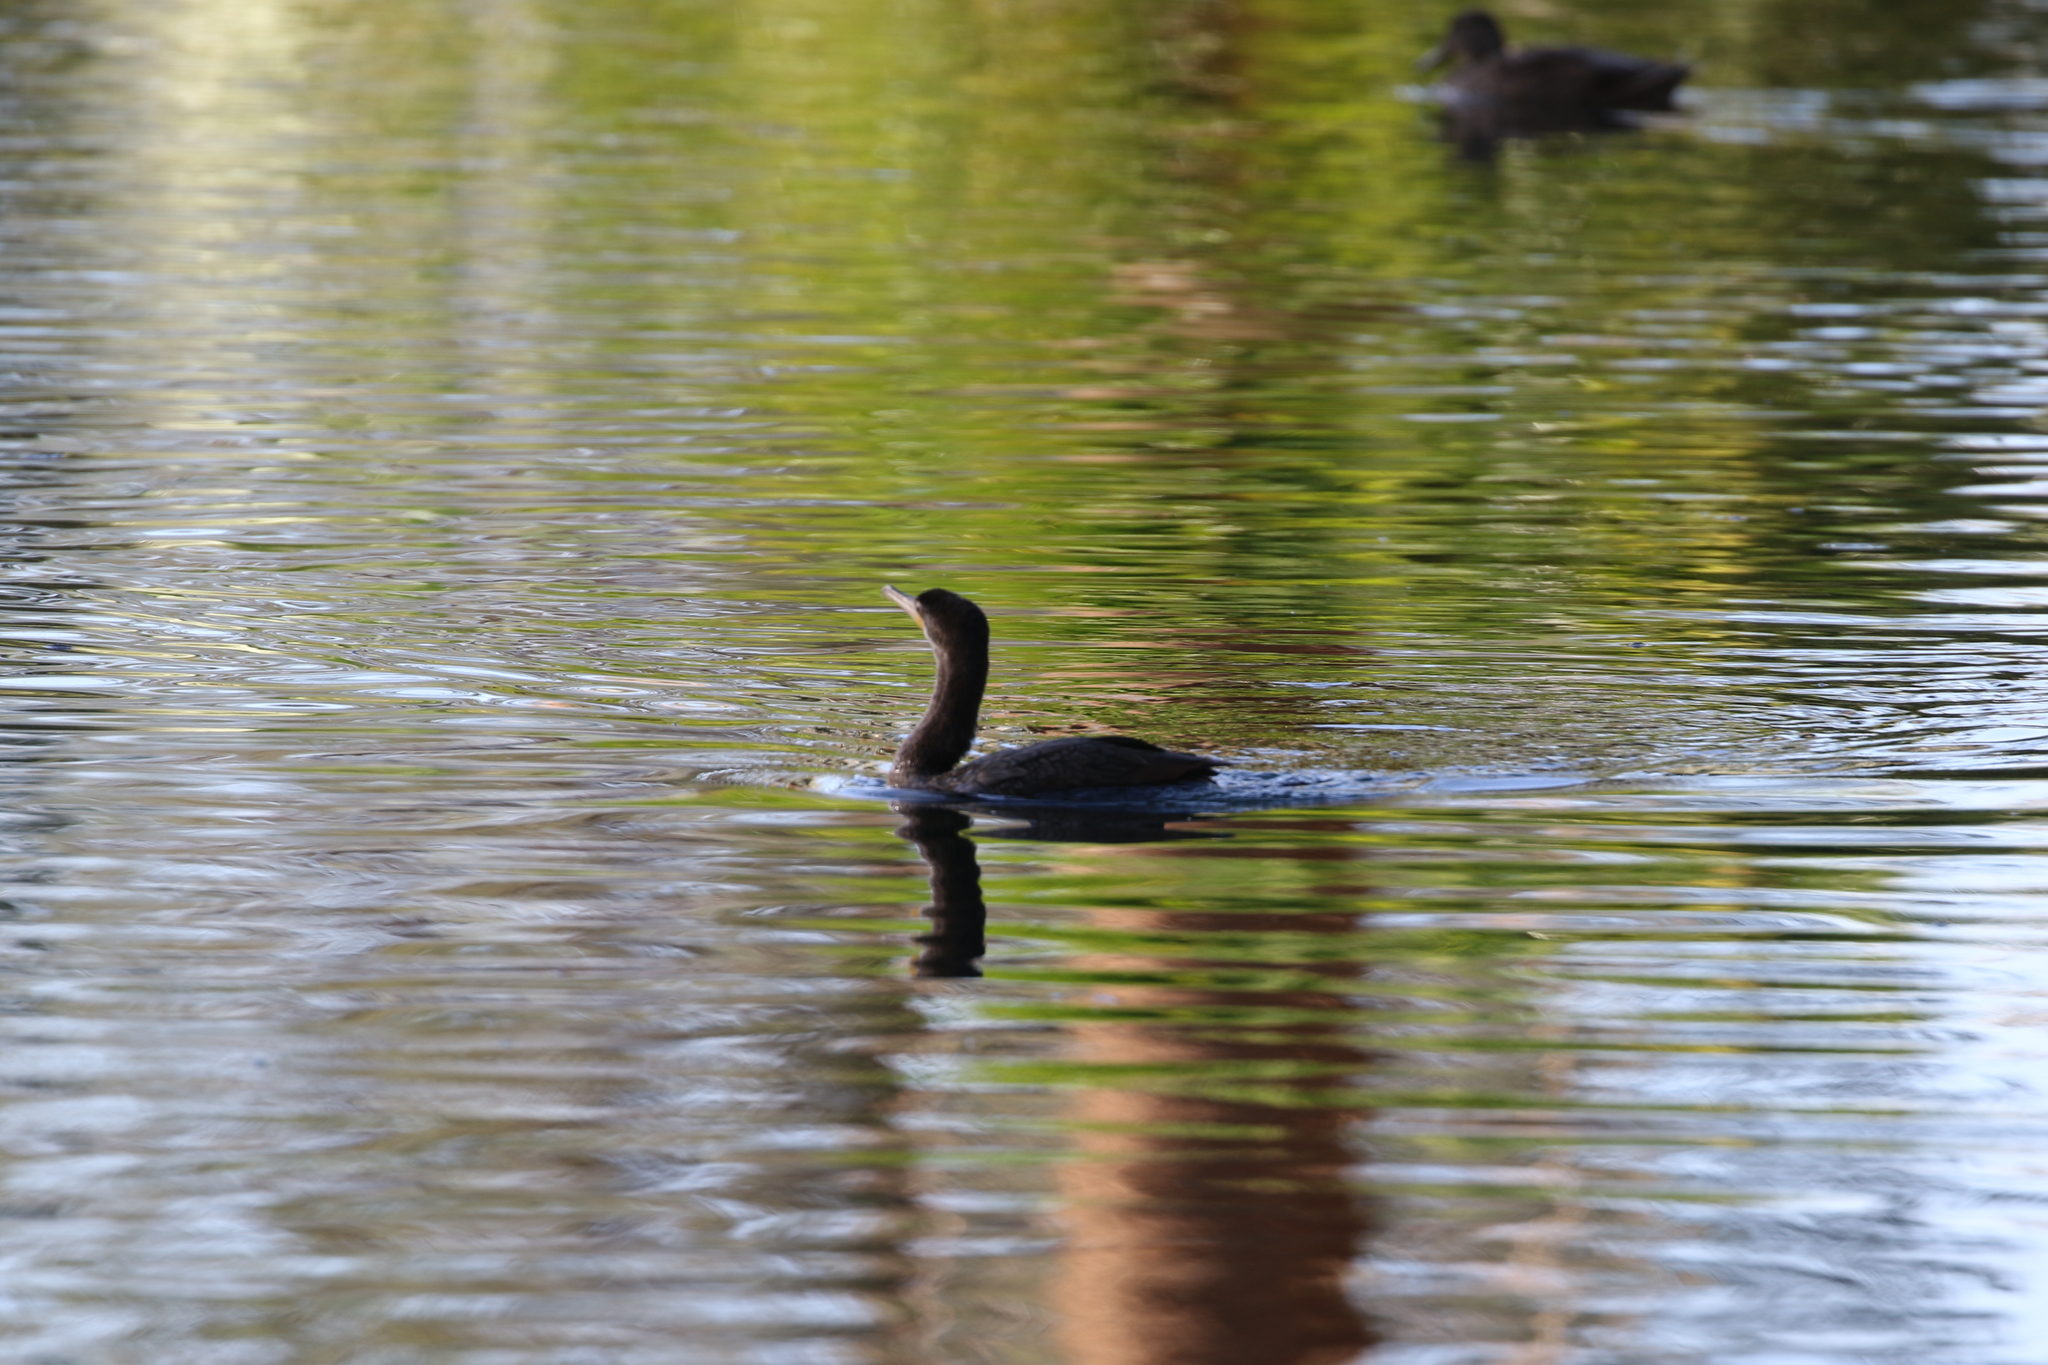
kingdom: Animalia
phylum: Chordata
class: Aves
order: Suliformes
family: Phalacrocoracidae
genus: Phalacrocorax
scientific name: Phalacrocorax brasilianus
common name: Neotropic cormorant
